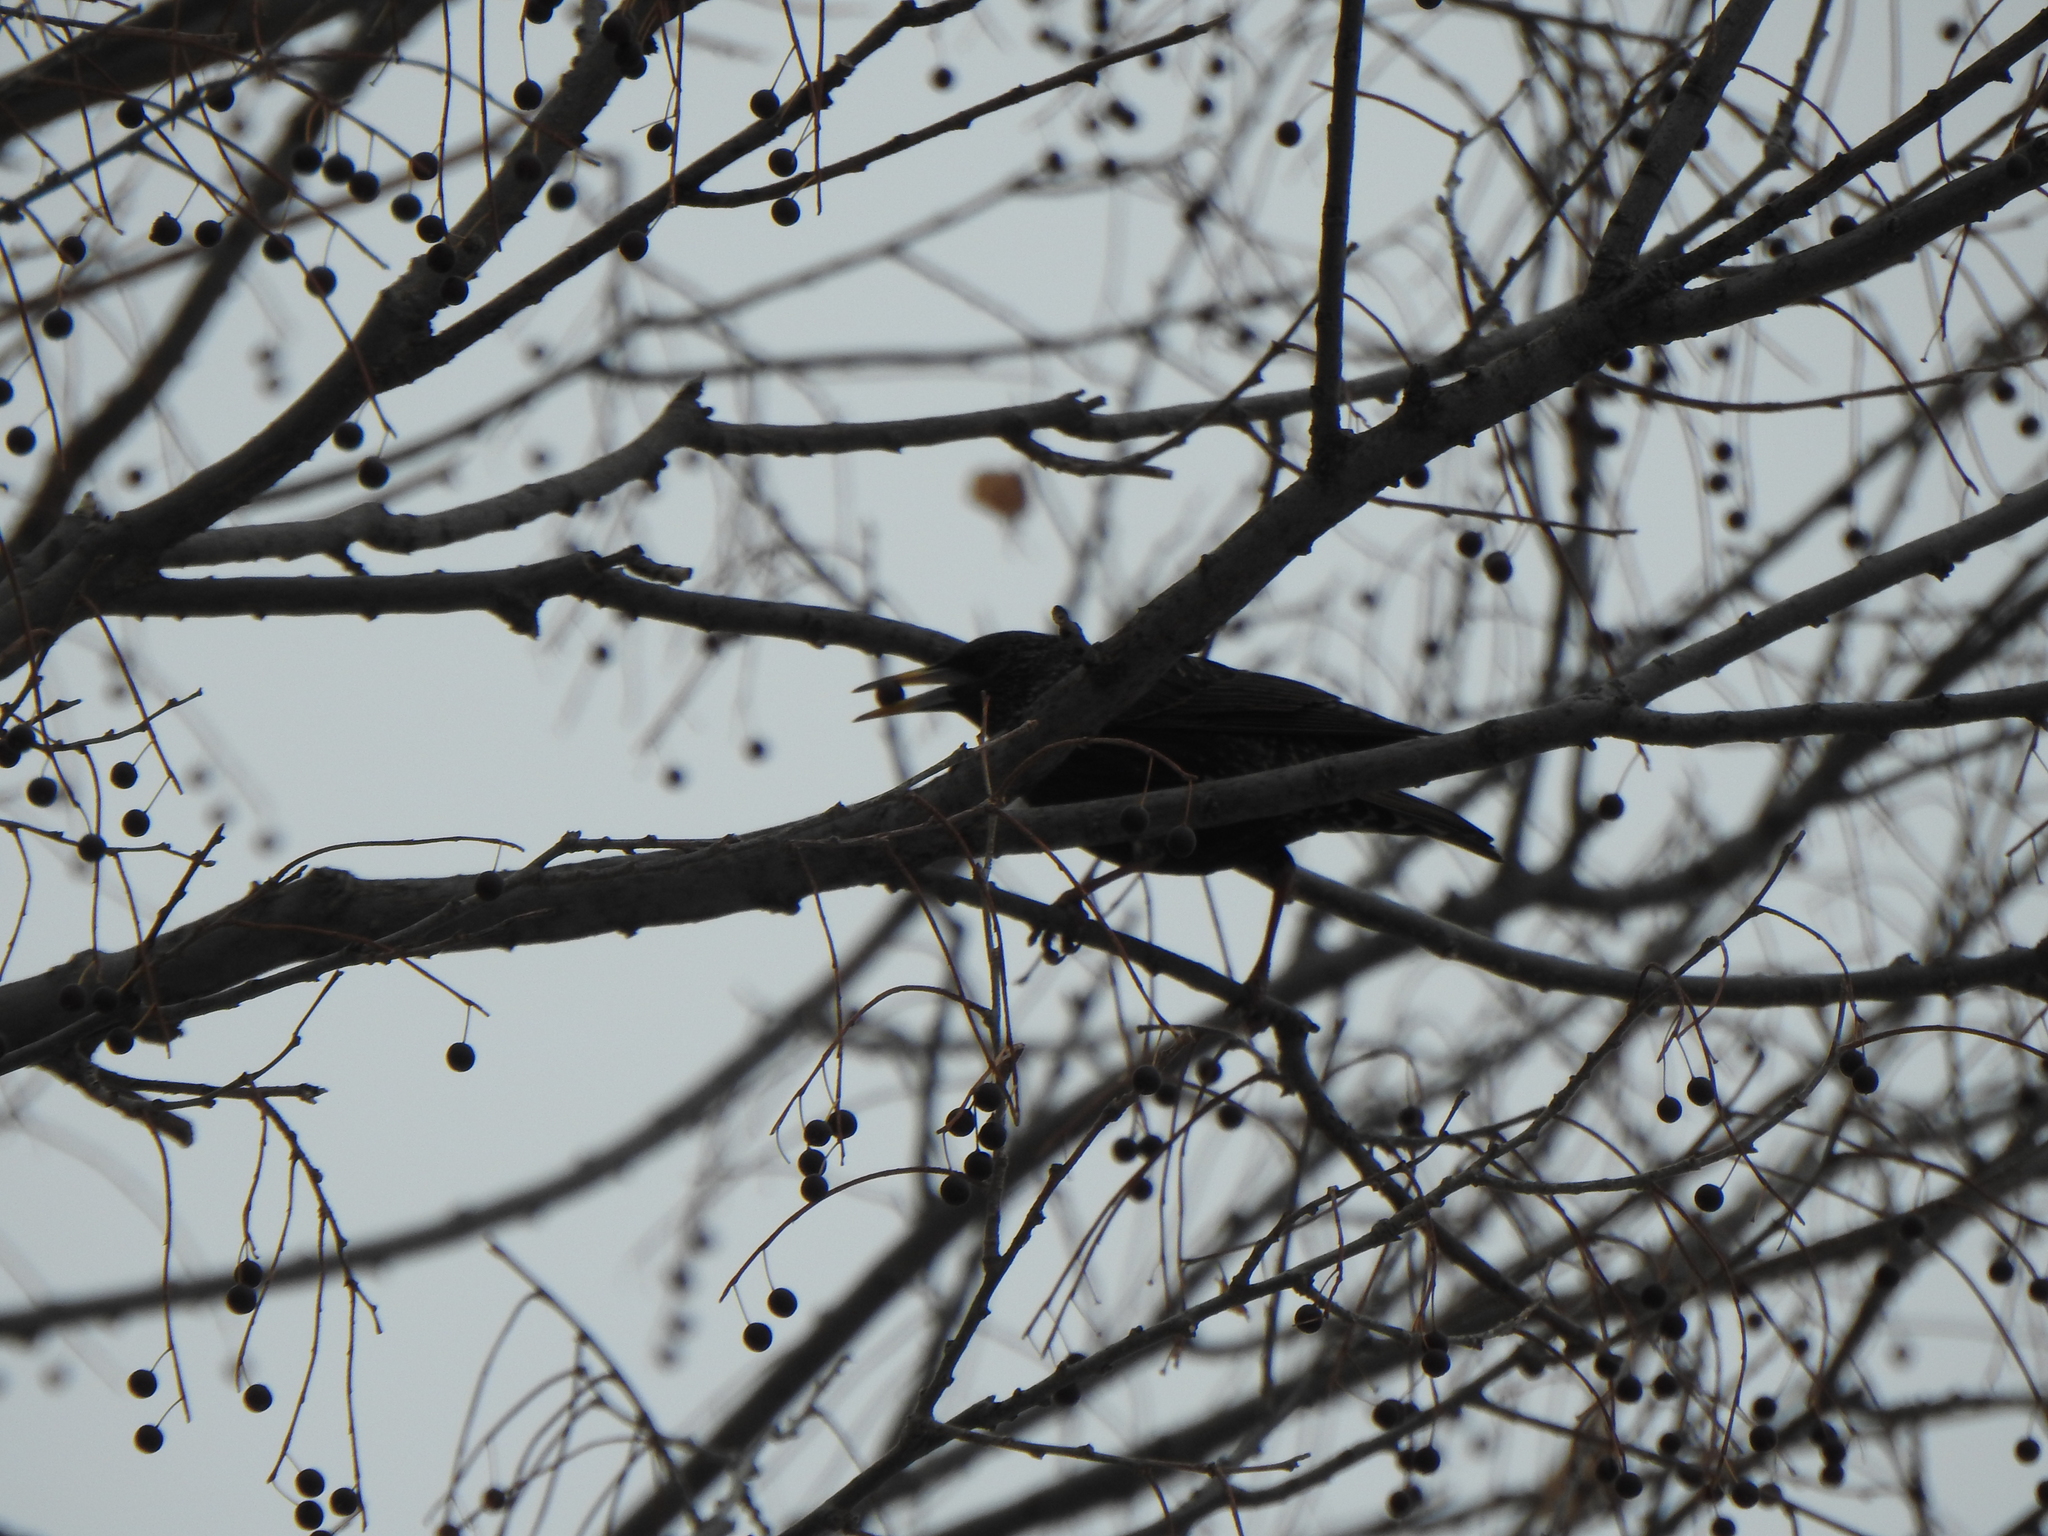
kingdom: Animalia
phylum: Chordata
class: Aves
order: Passeriformes
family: Sturnidae
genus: Sturnus
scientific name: Sturnus vulgaris
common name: Common starling
